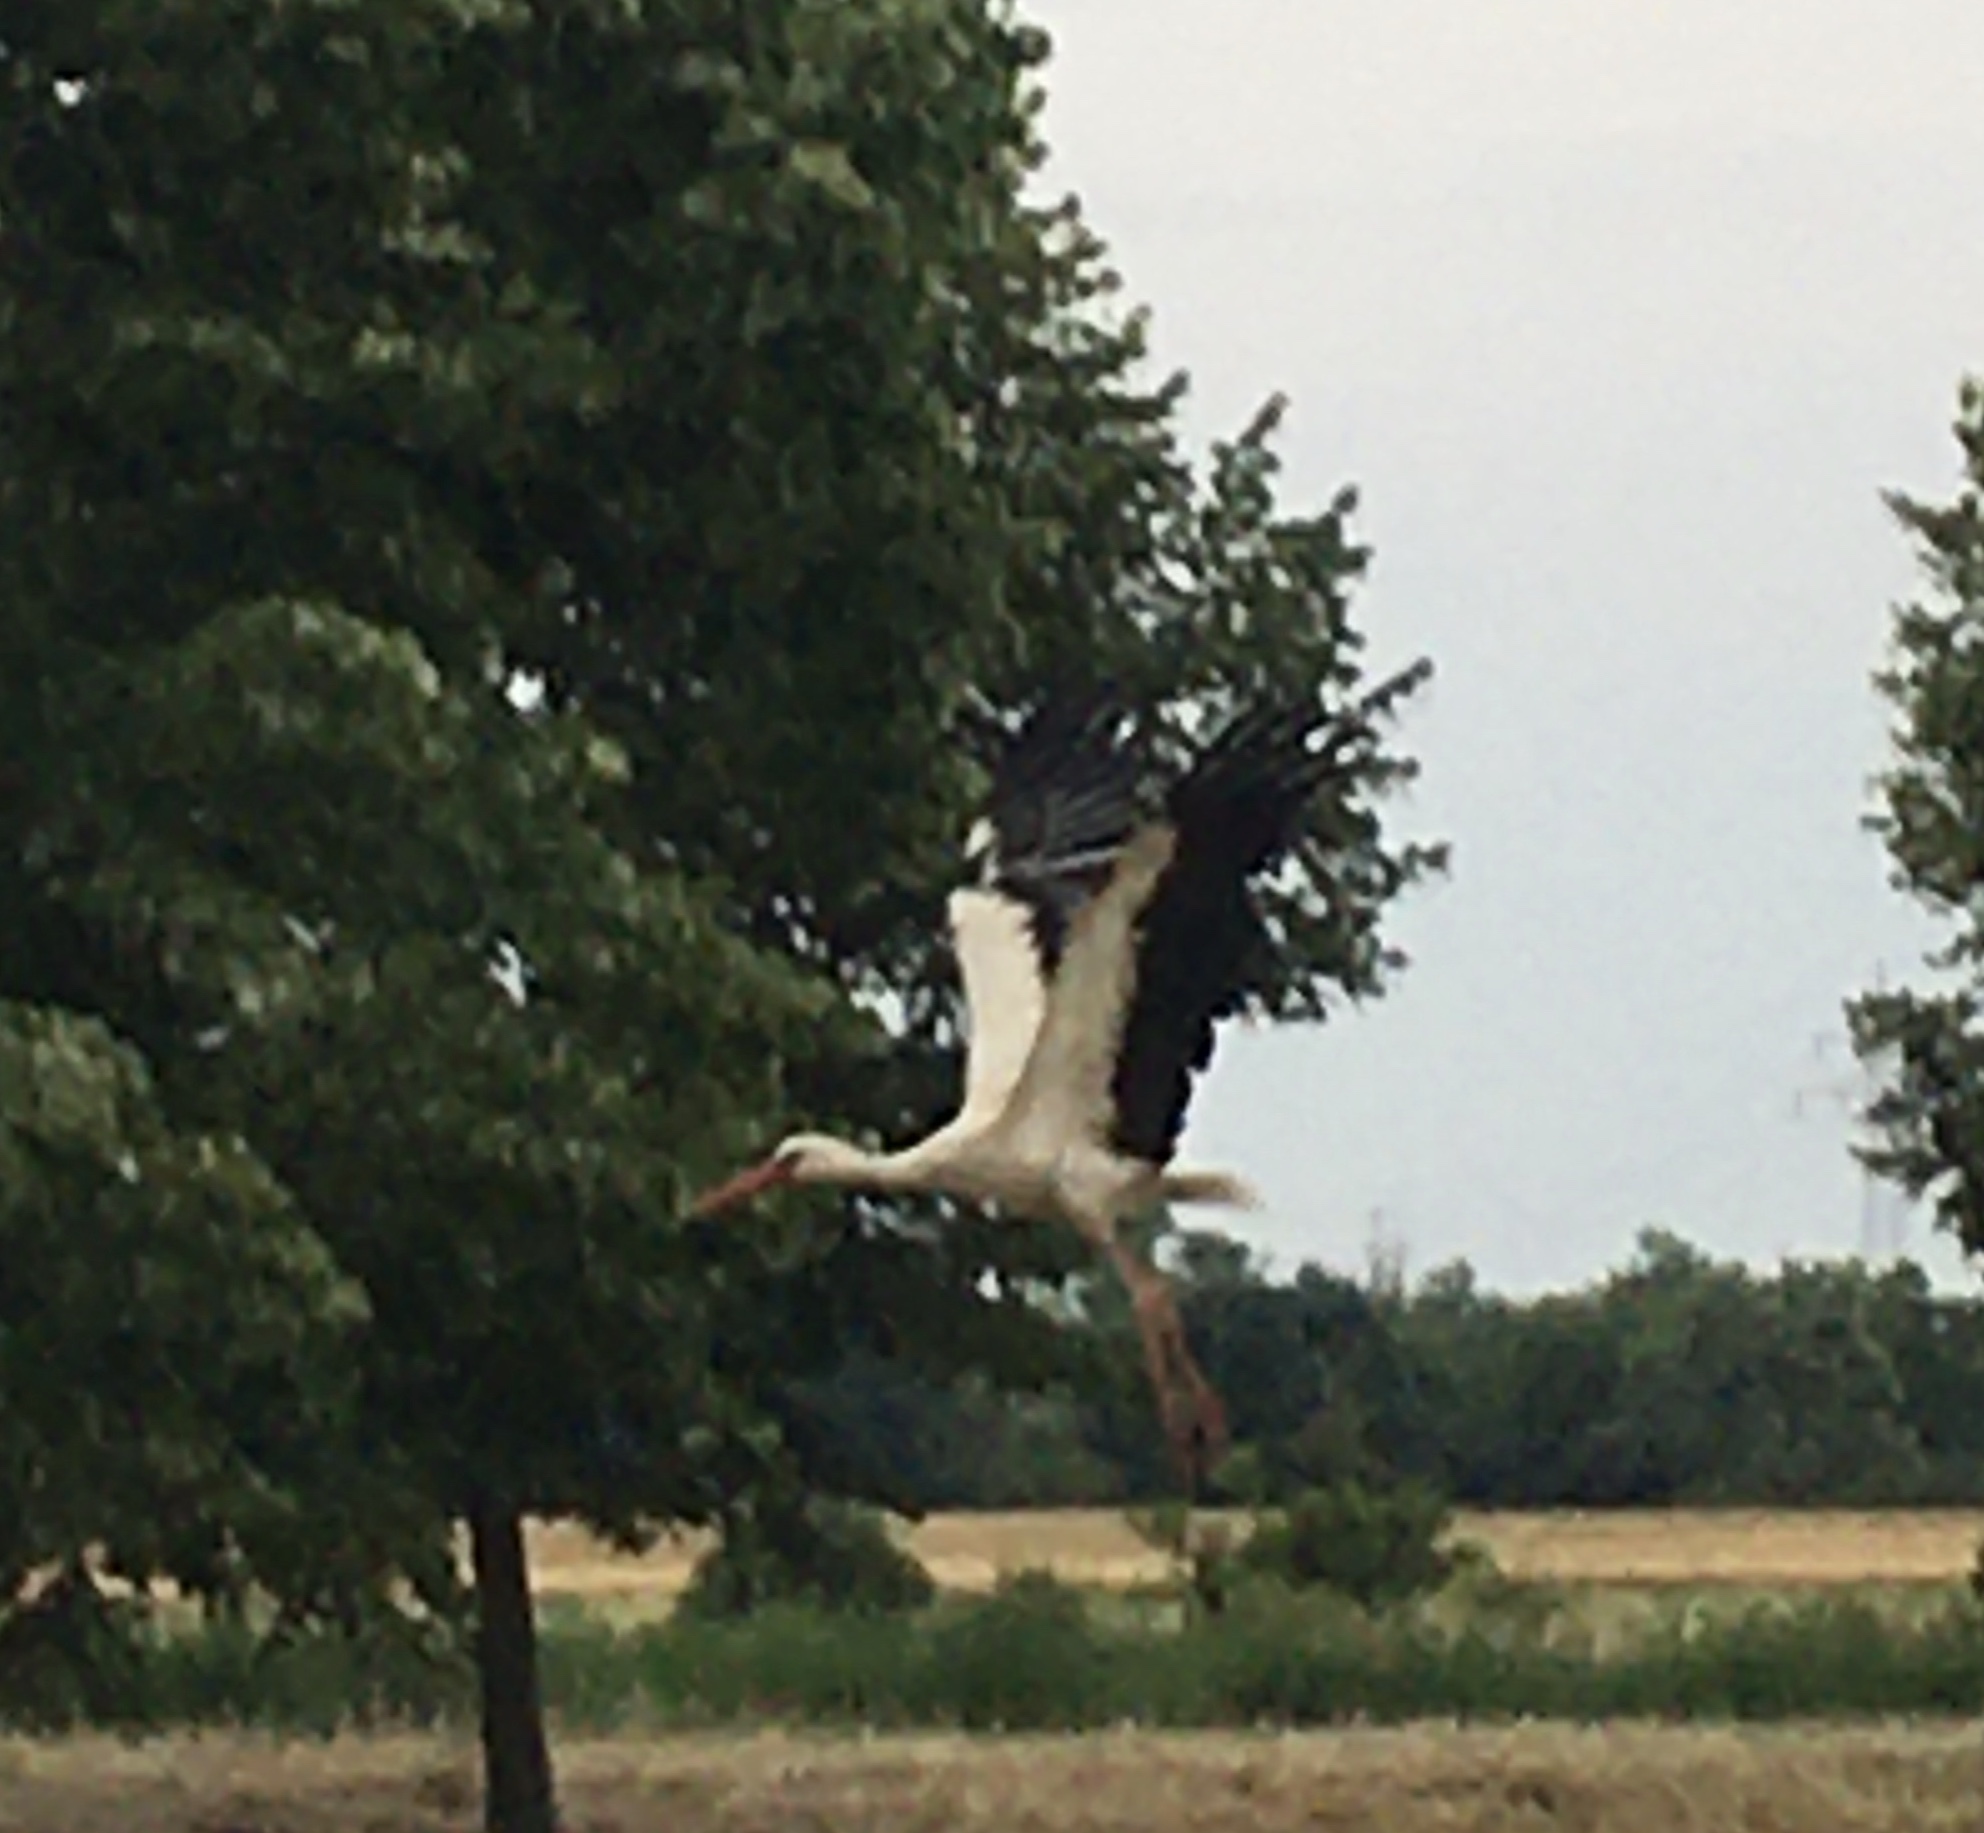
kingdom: Animalia
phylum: Chordata
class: Aves
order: Ciconiiformes
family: Ciconiidae
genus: Ciconia
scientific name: Ciconia ciconia
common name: White stork
